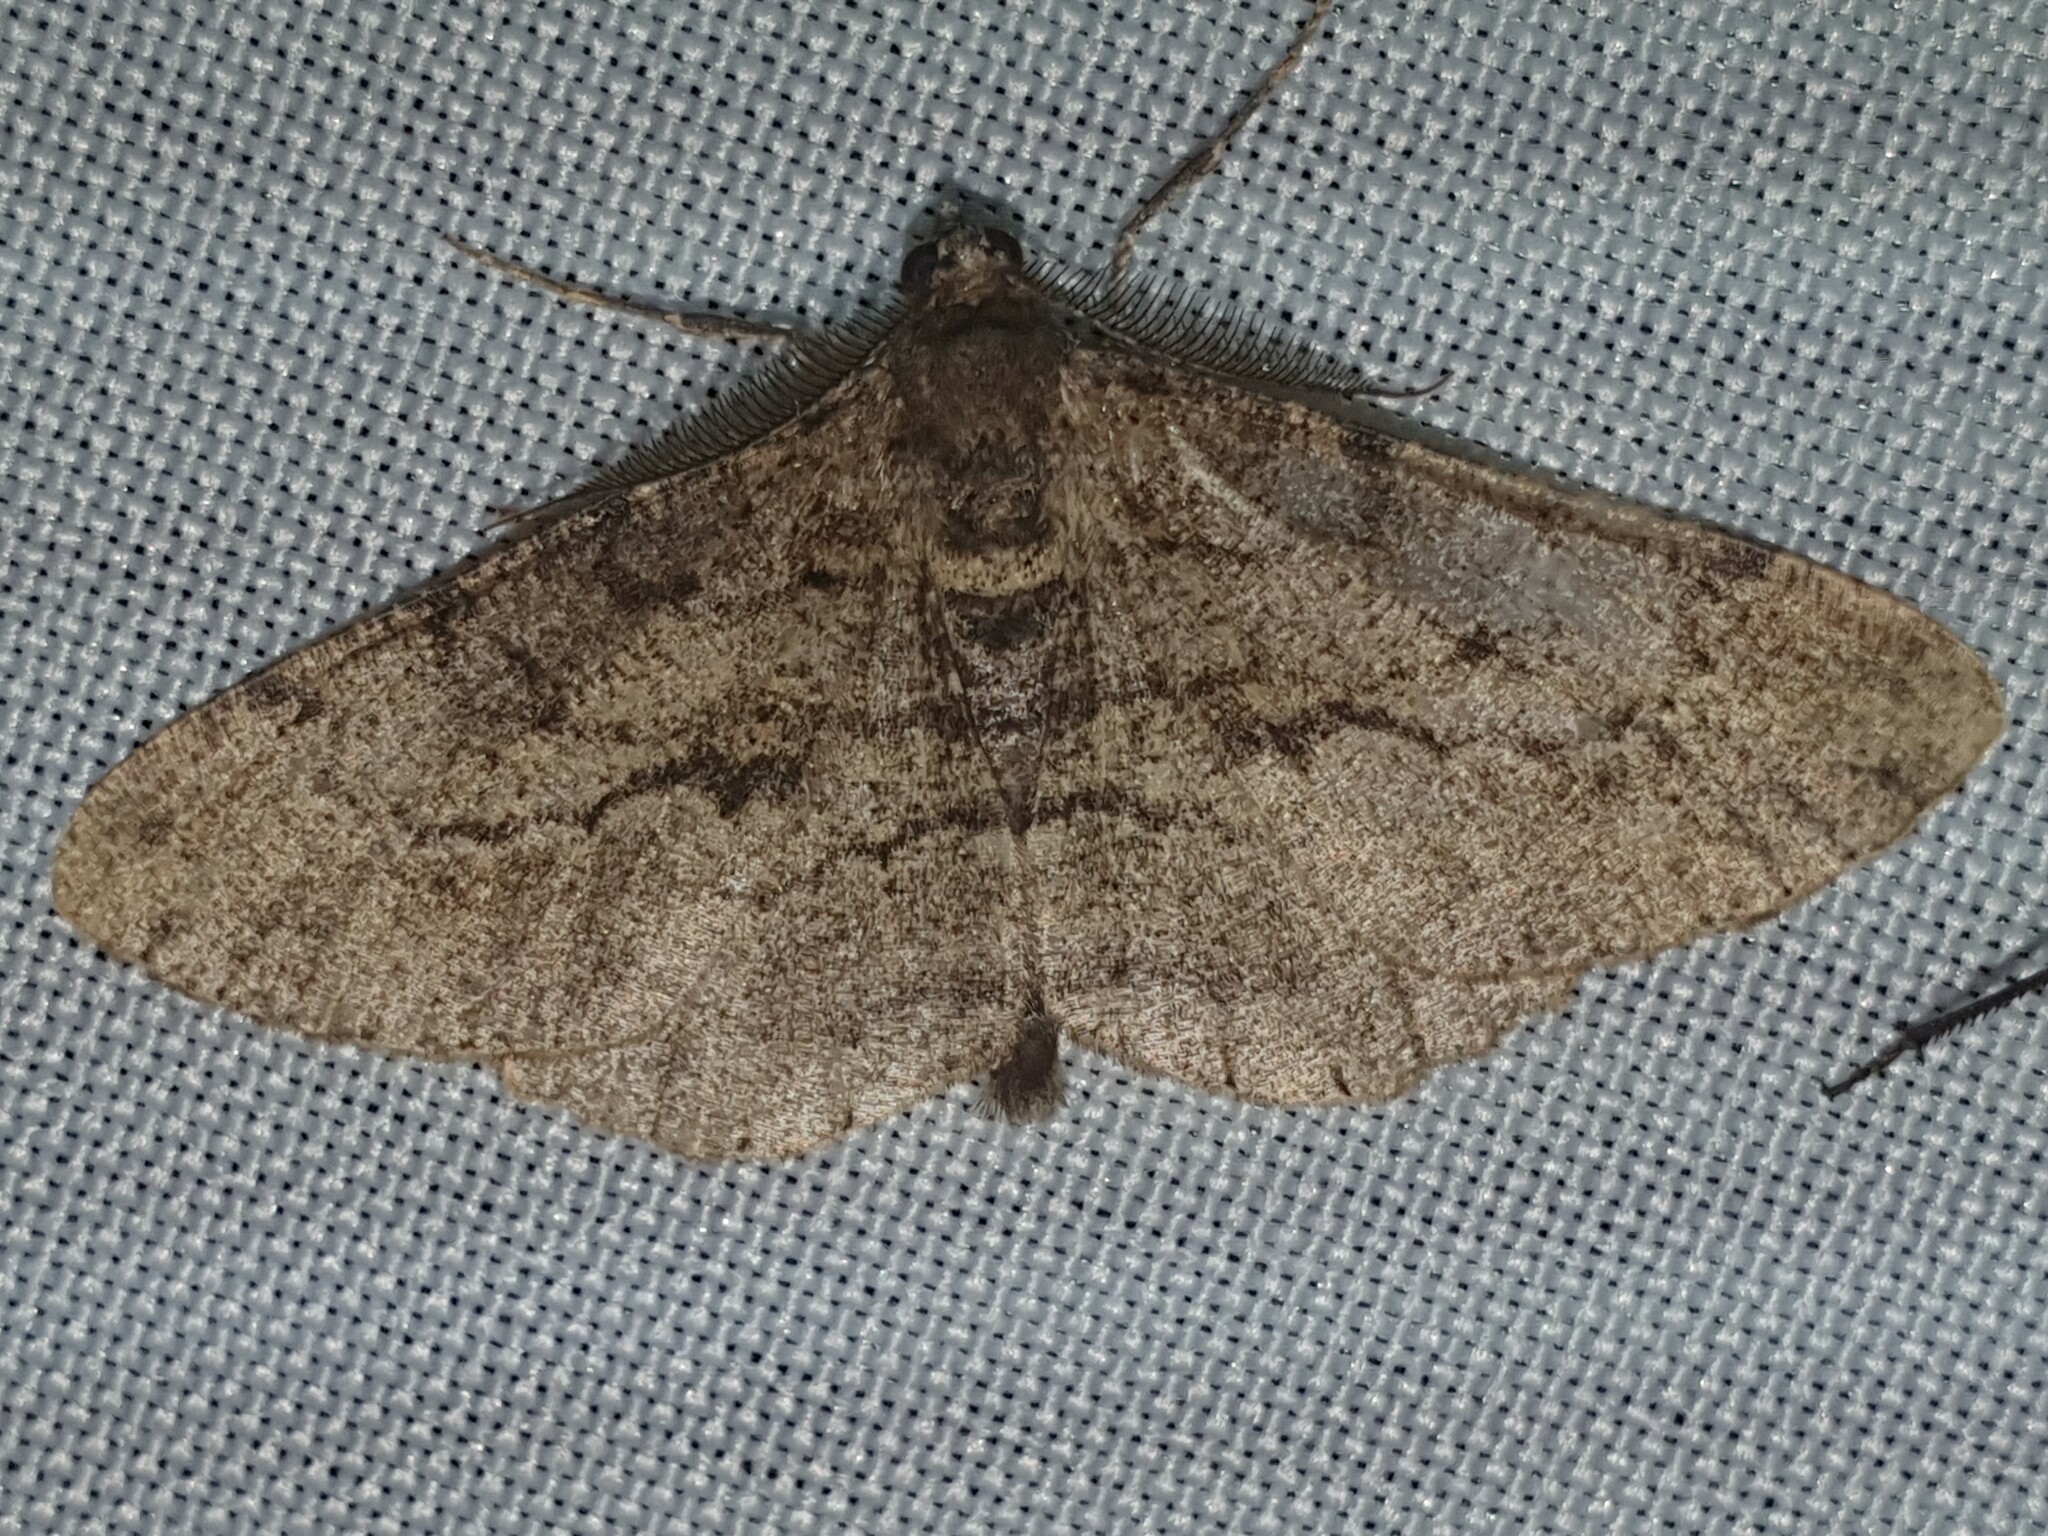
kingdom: Animalia
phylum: Arthropoda
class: Insecta
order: Lepidoptera
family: Geometridae
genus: Peribatodes
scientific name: Peribatodes rhomboidaria
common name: Willow beauty
